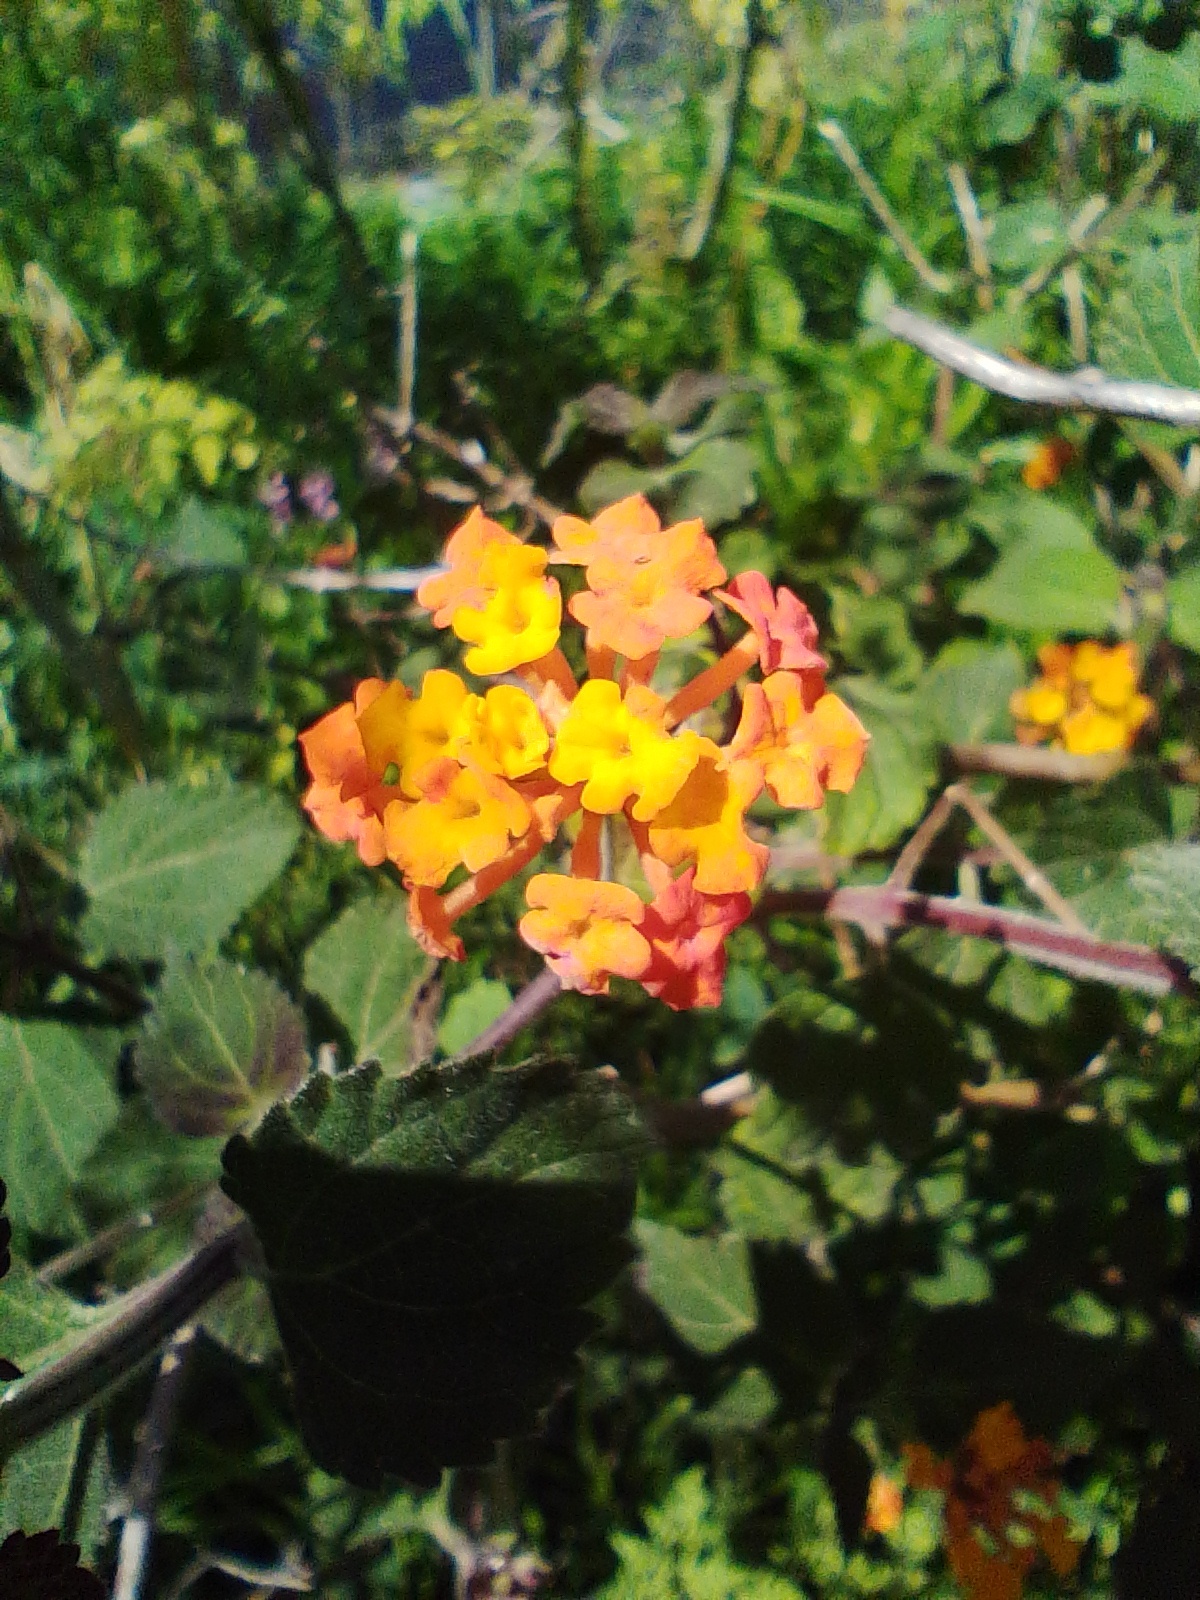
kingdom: Plantae
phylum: Tracheophyta
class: Magnoliopsida
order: Lamiales
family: Verbenaceae
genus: Lantana
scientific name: Lantana camara
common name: Lantana
